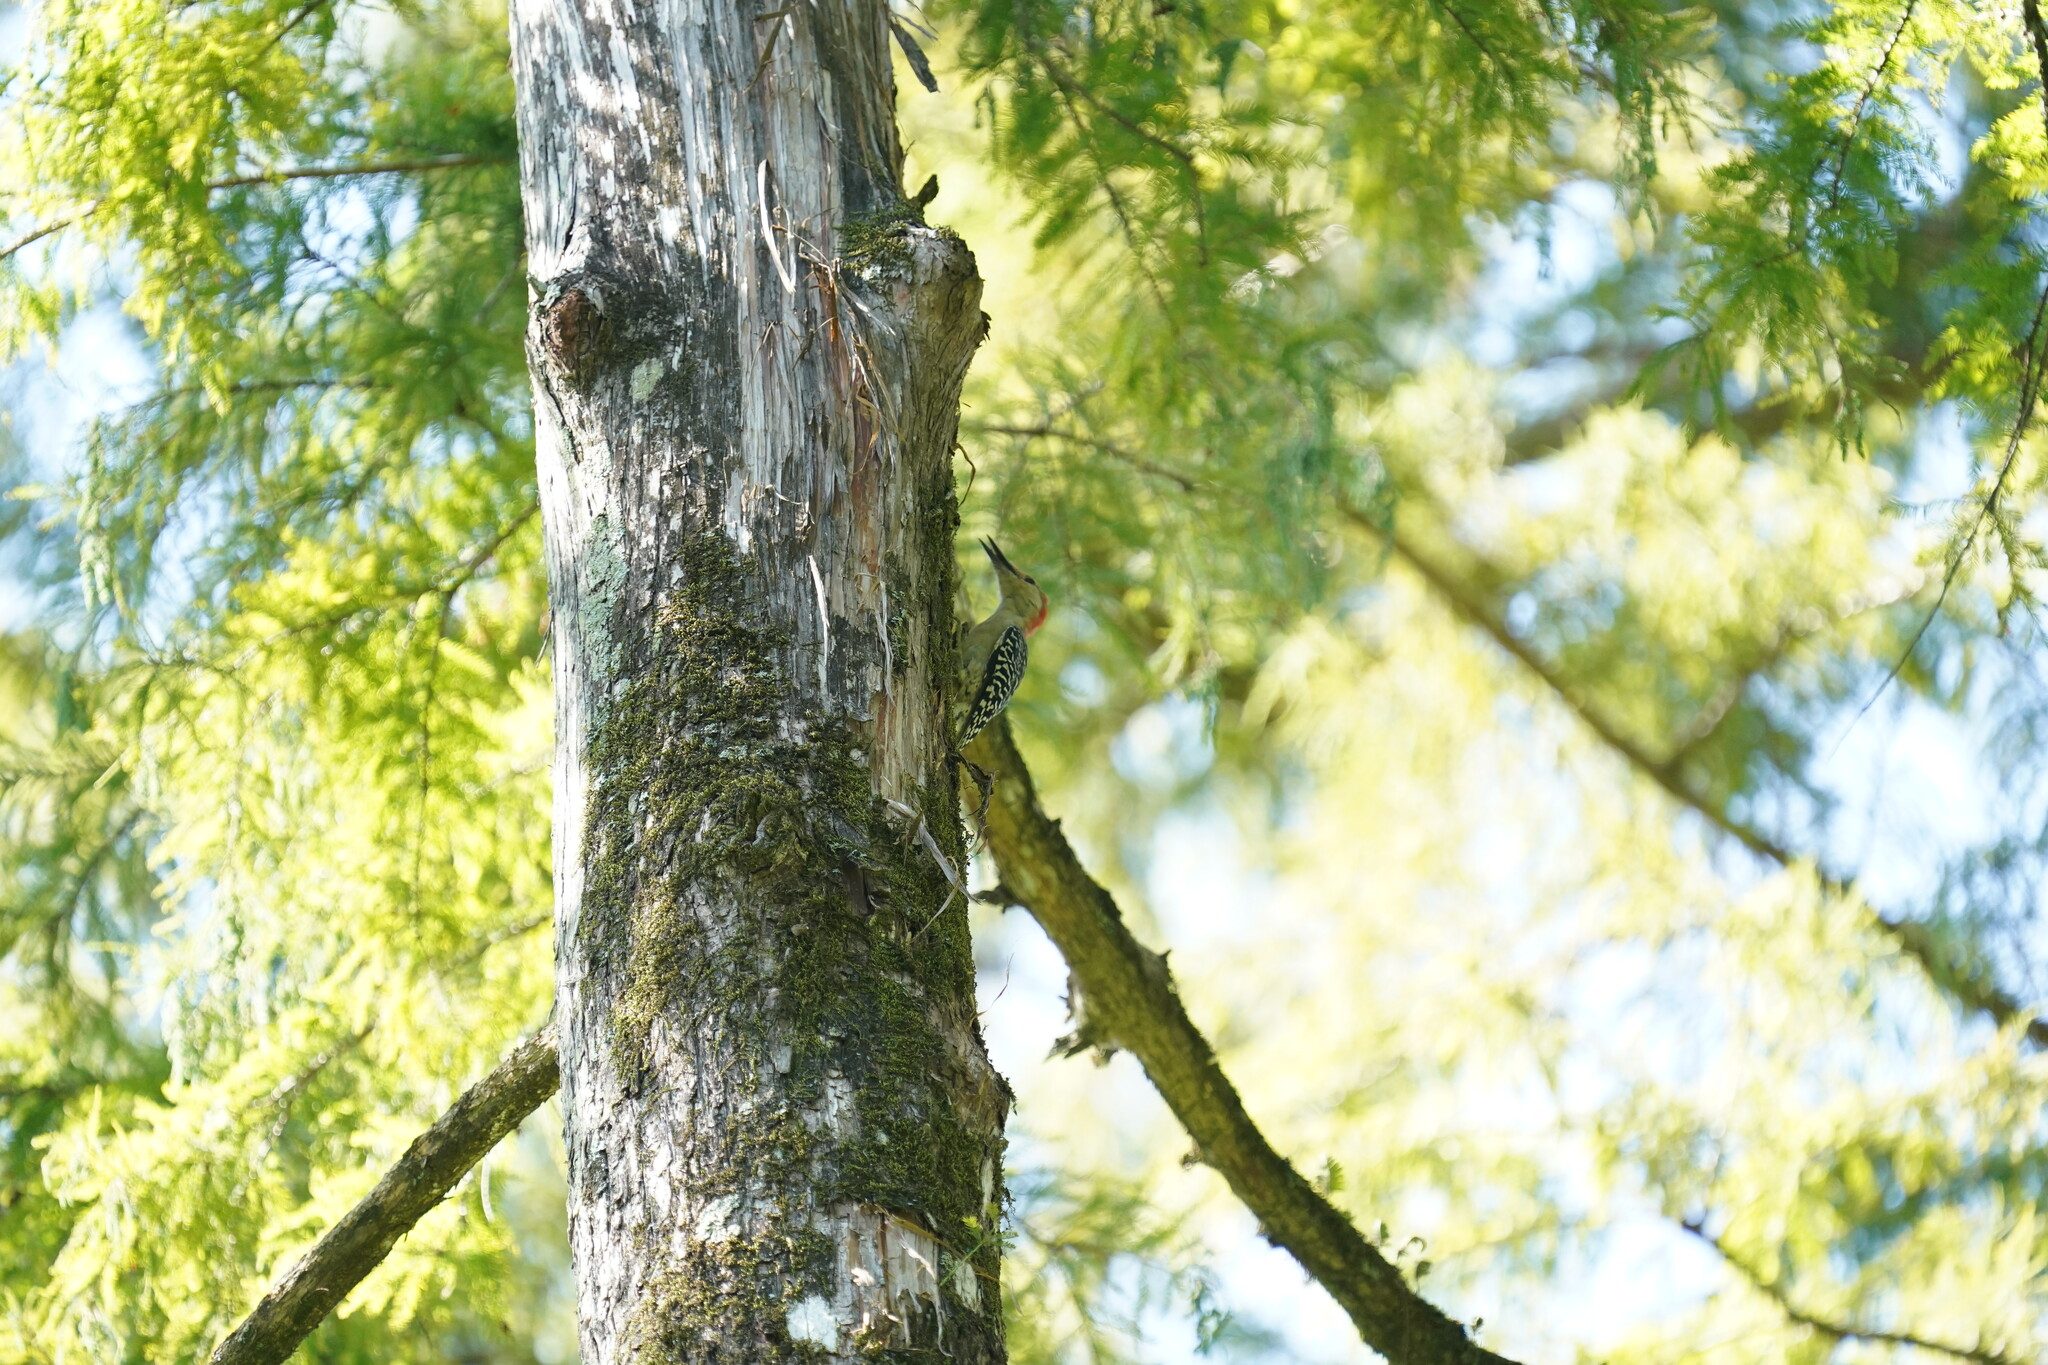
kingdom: Animalia
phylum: Chordata
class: Aves
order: Piciformes
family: Picidae
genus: Melanerpes
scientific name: Melanerpes carolinus
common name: Red-bellied woodpecker
